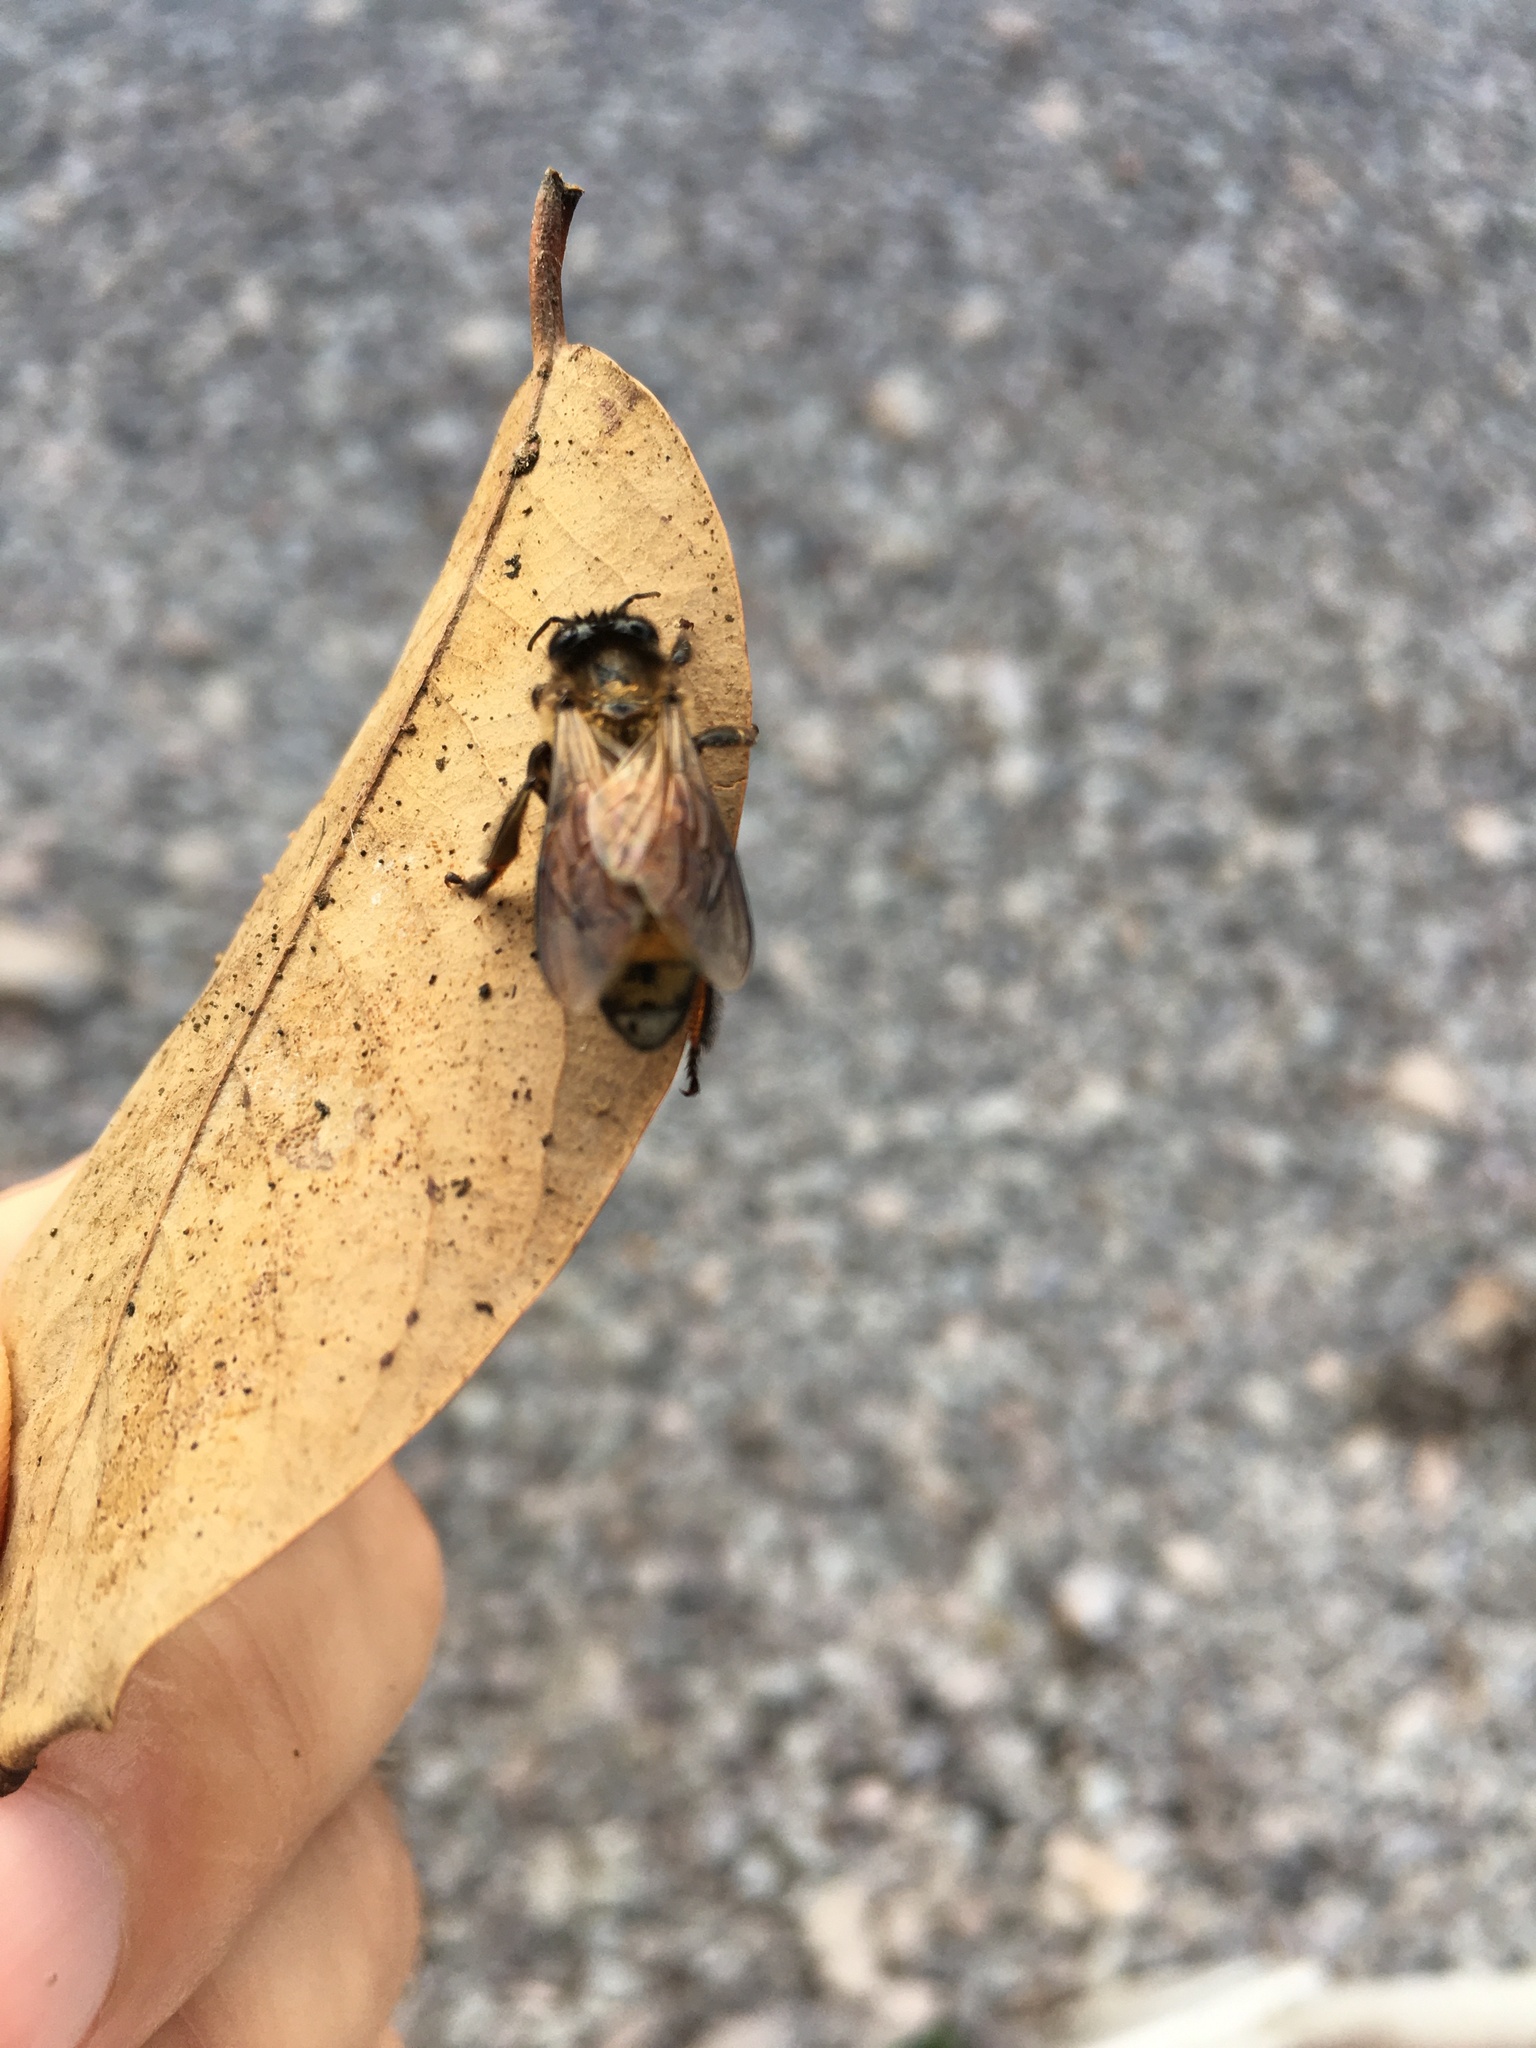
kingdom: Animalia
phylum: Arthropoda
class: Insecta
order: Hymenoptera
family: Apidae
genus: Apis
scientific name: Apis dorsata
